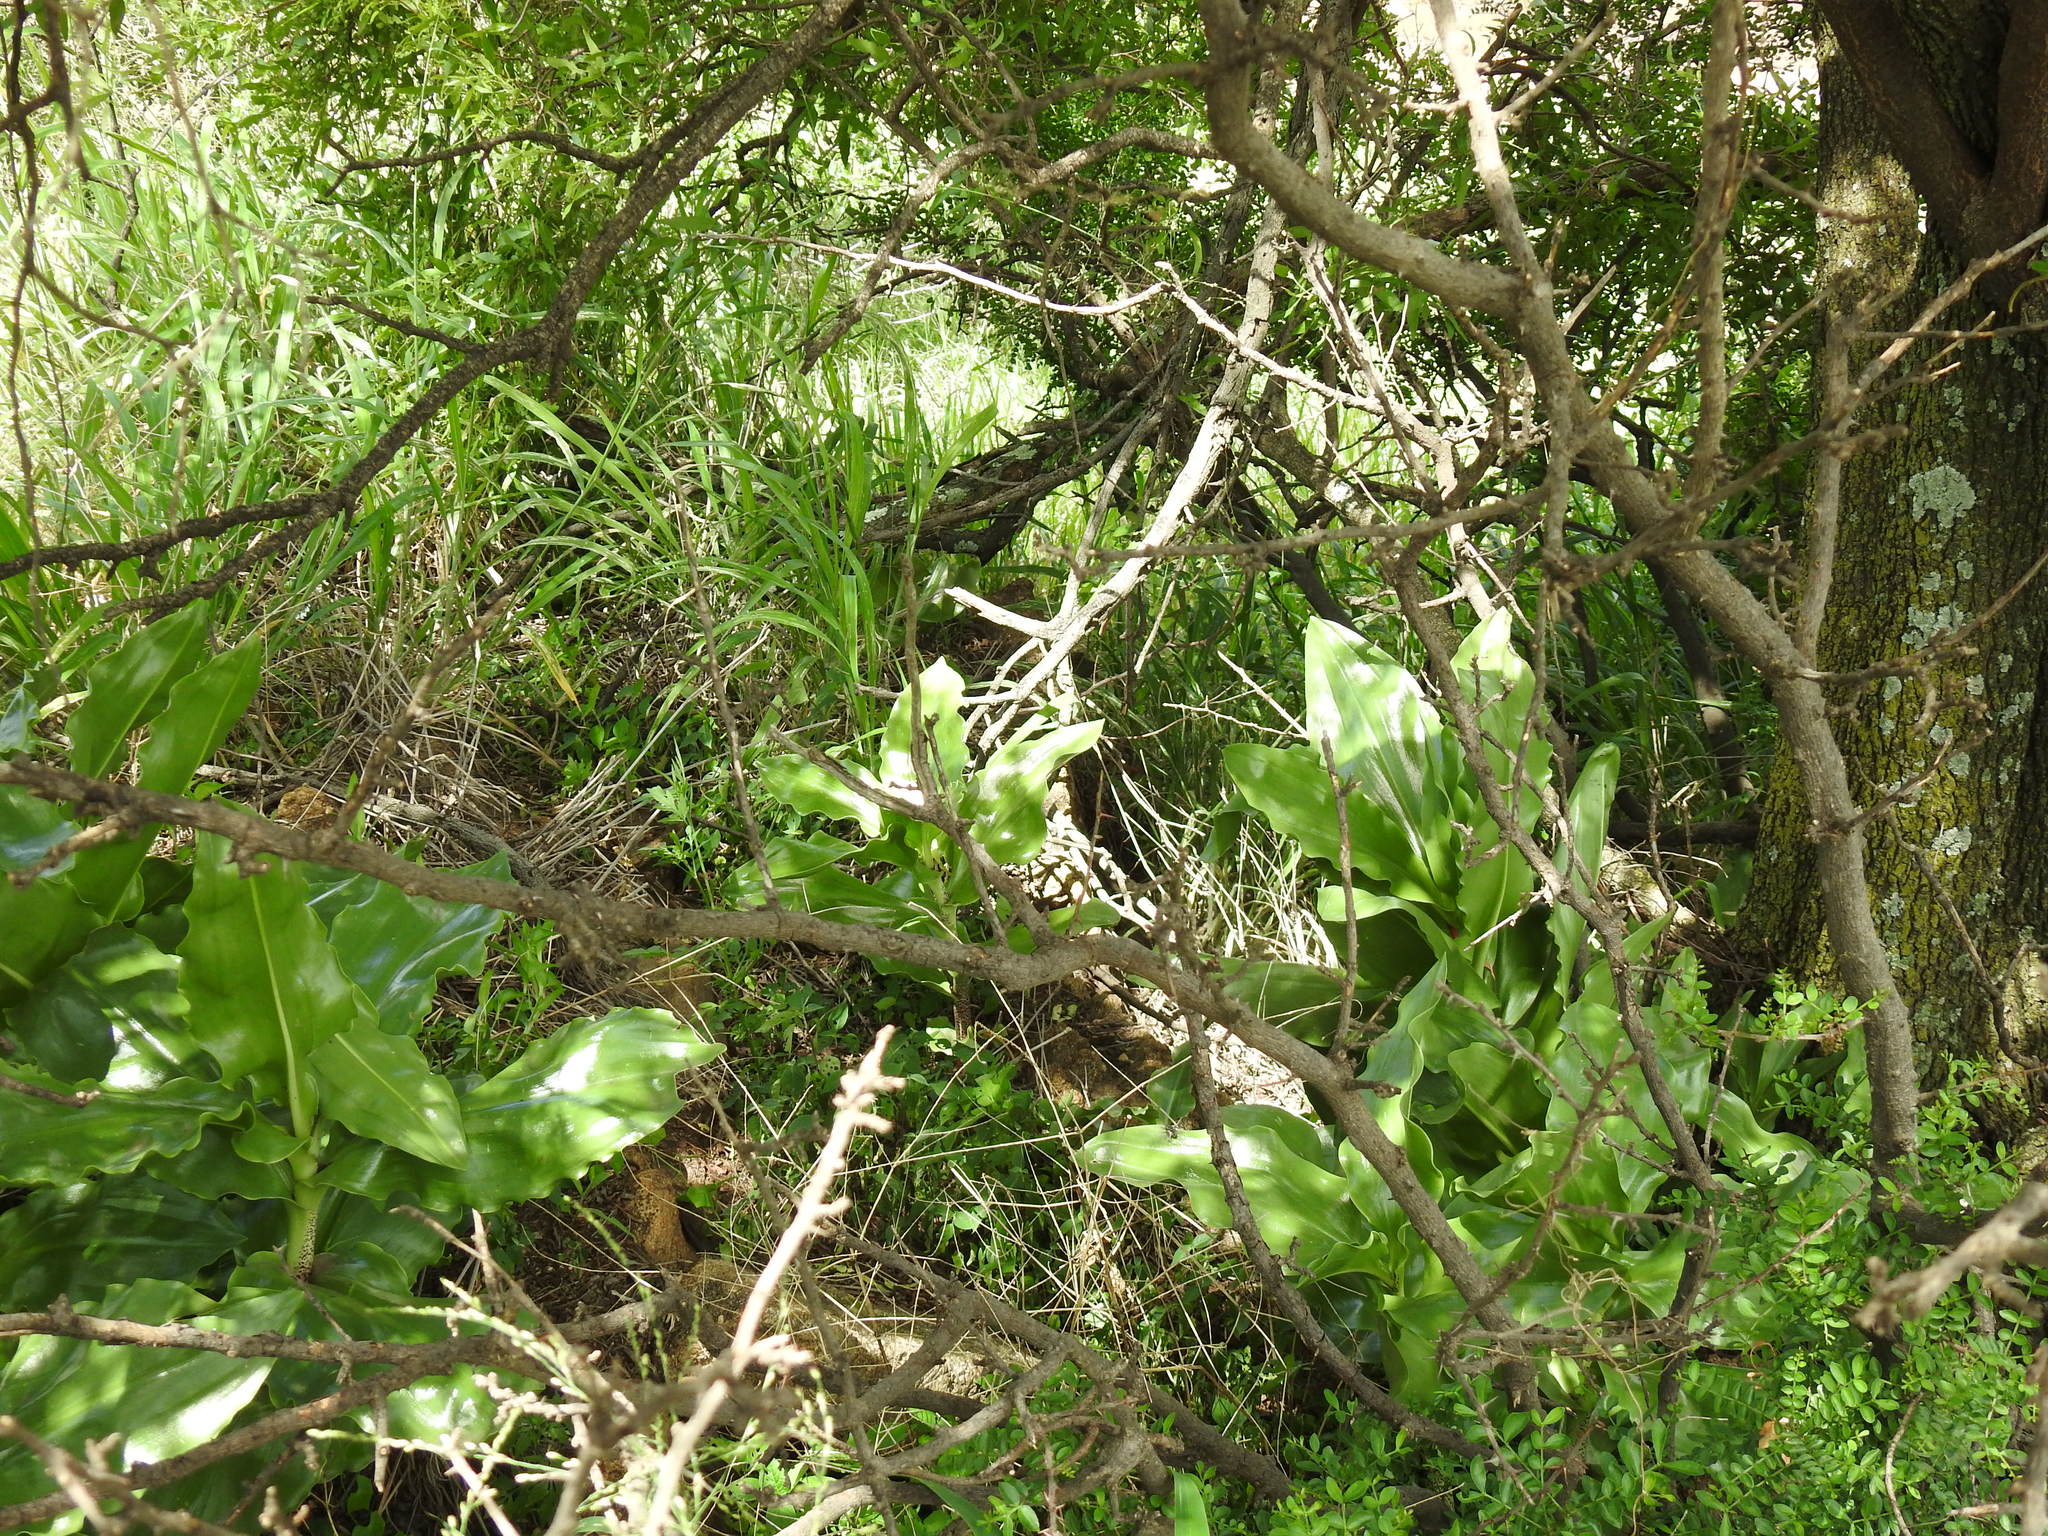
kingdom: Plantae
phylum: Tracheophyta
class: Liliopsida
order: Asparagales
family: Amaryllidaceae
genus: Scadoxus
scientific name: Scadoxus puniceus
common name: Royal-paintbrush
